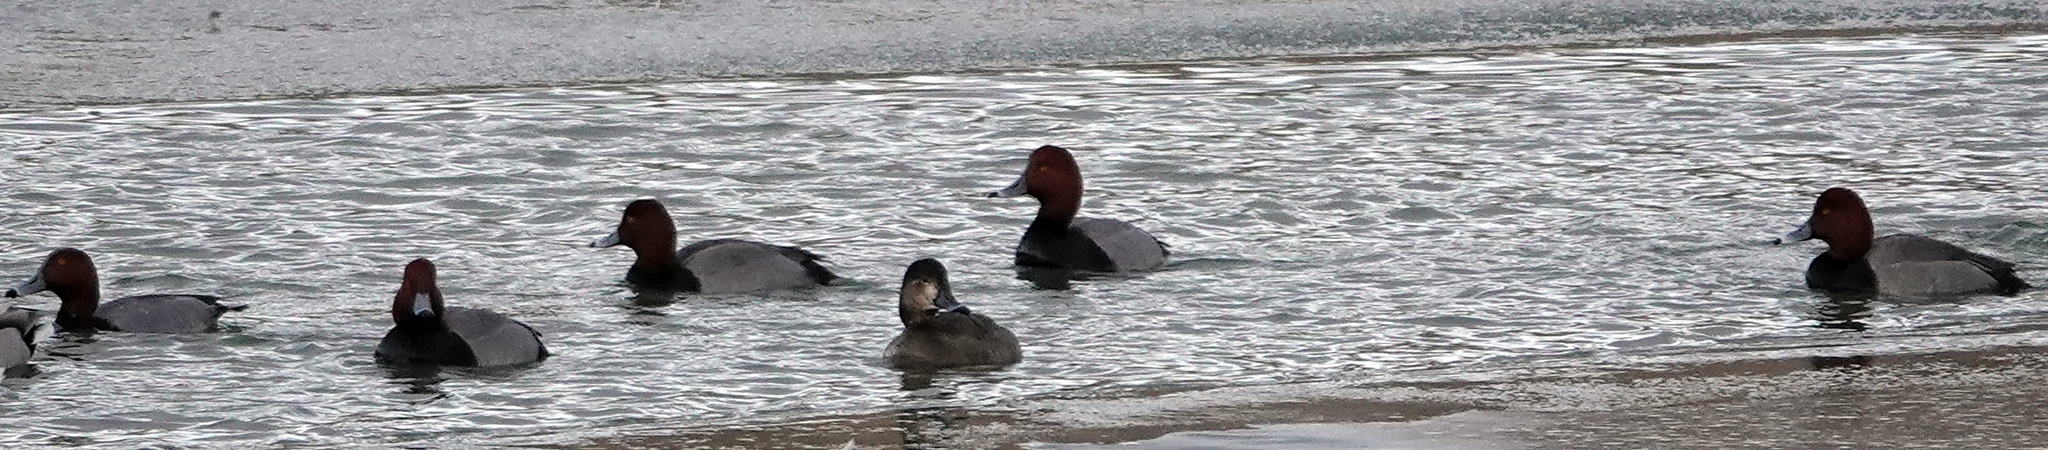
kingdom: Animalia
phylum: Chordata
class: Aves
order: Anseriformes
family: Anatidae
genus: Aythya
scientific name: Aythya americana
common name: Redhead
